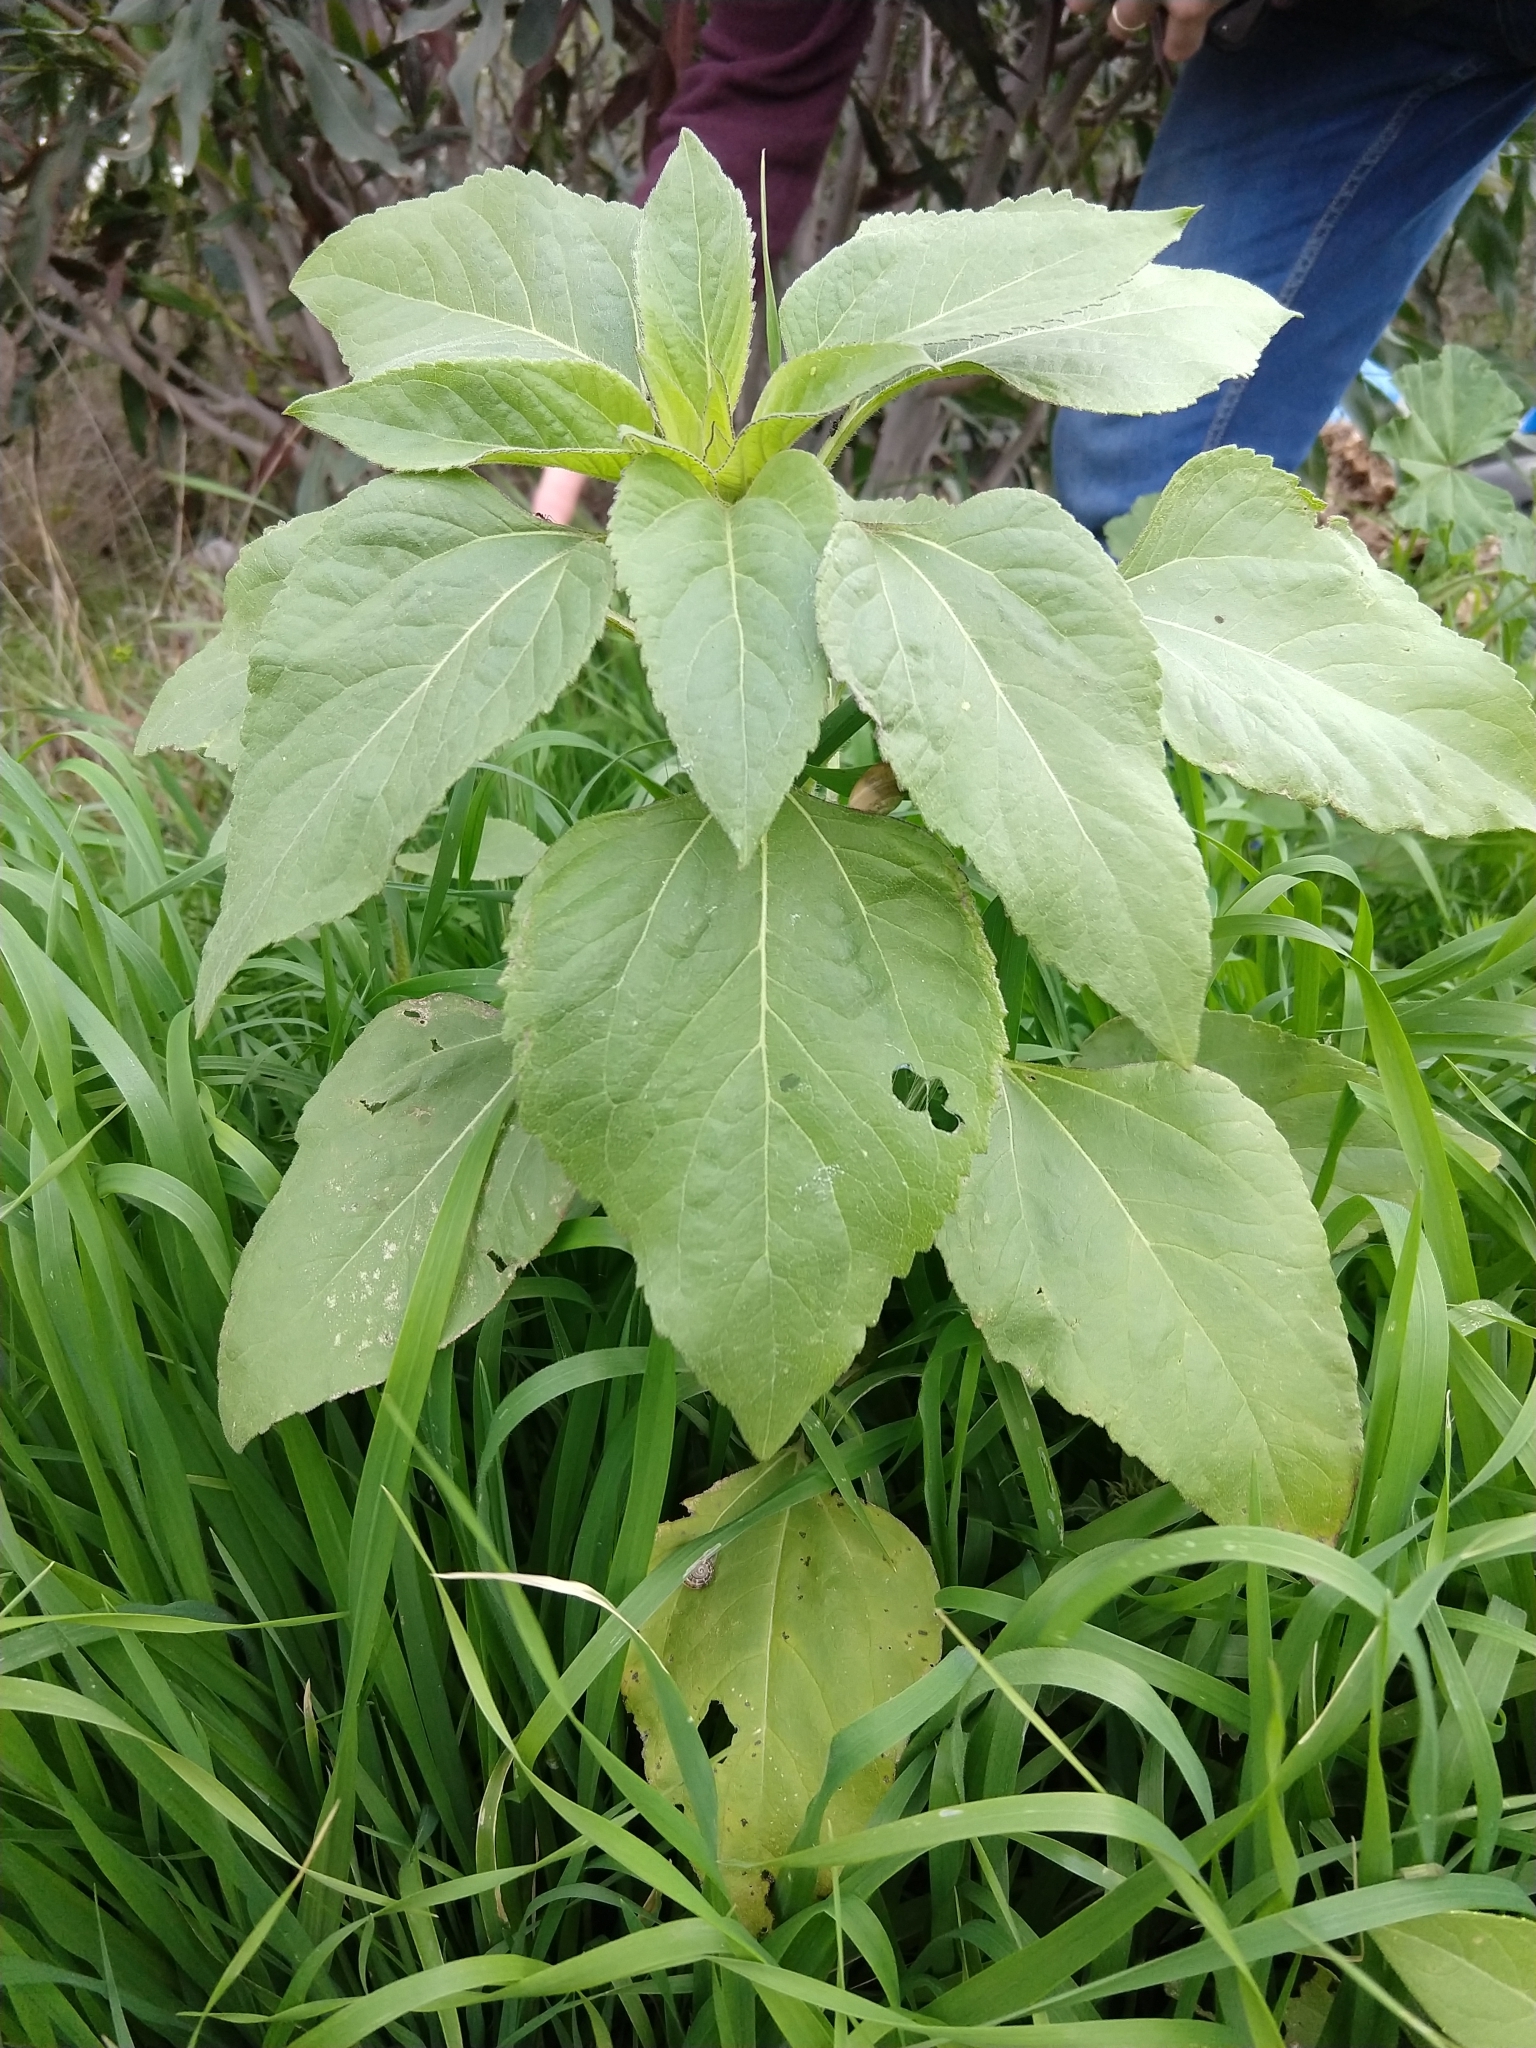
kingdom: Plantae
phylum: Tracheophyta
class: Magnoliopsida
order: Asterales
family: Asteraceae
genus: Helianthus
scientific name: Helianthus annuus
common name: Sunflower
